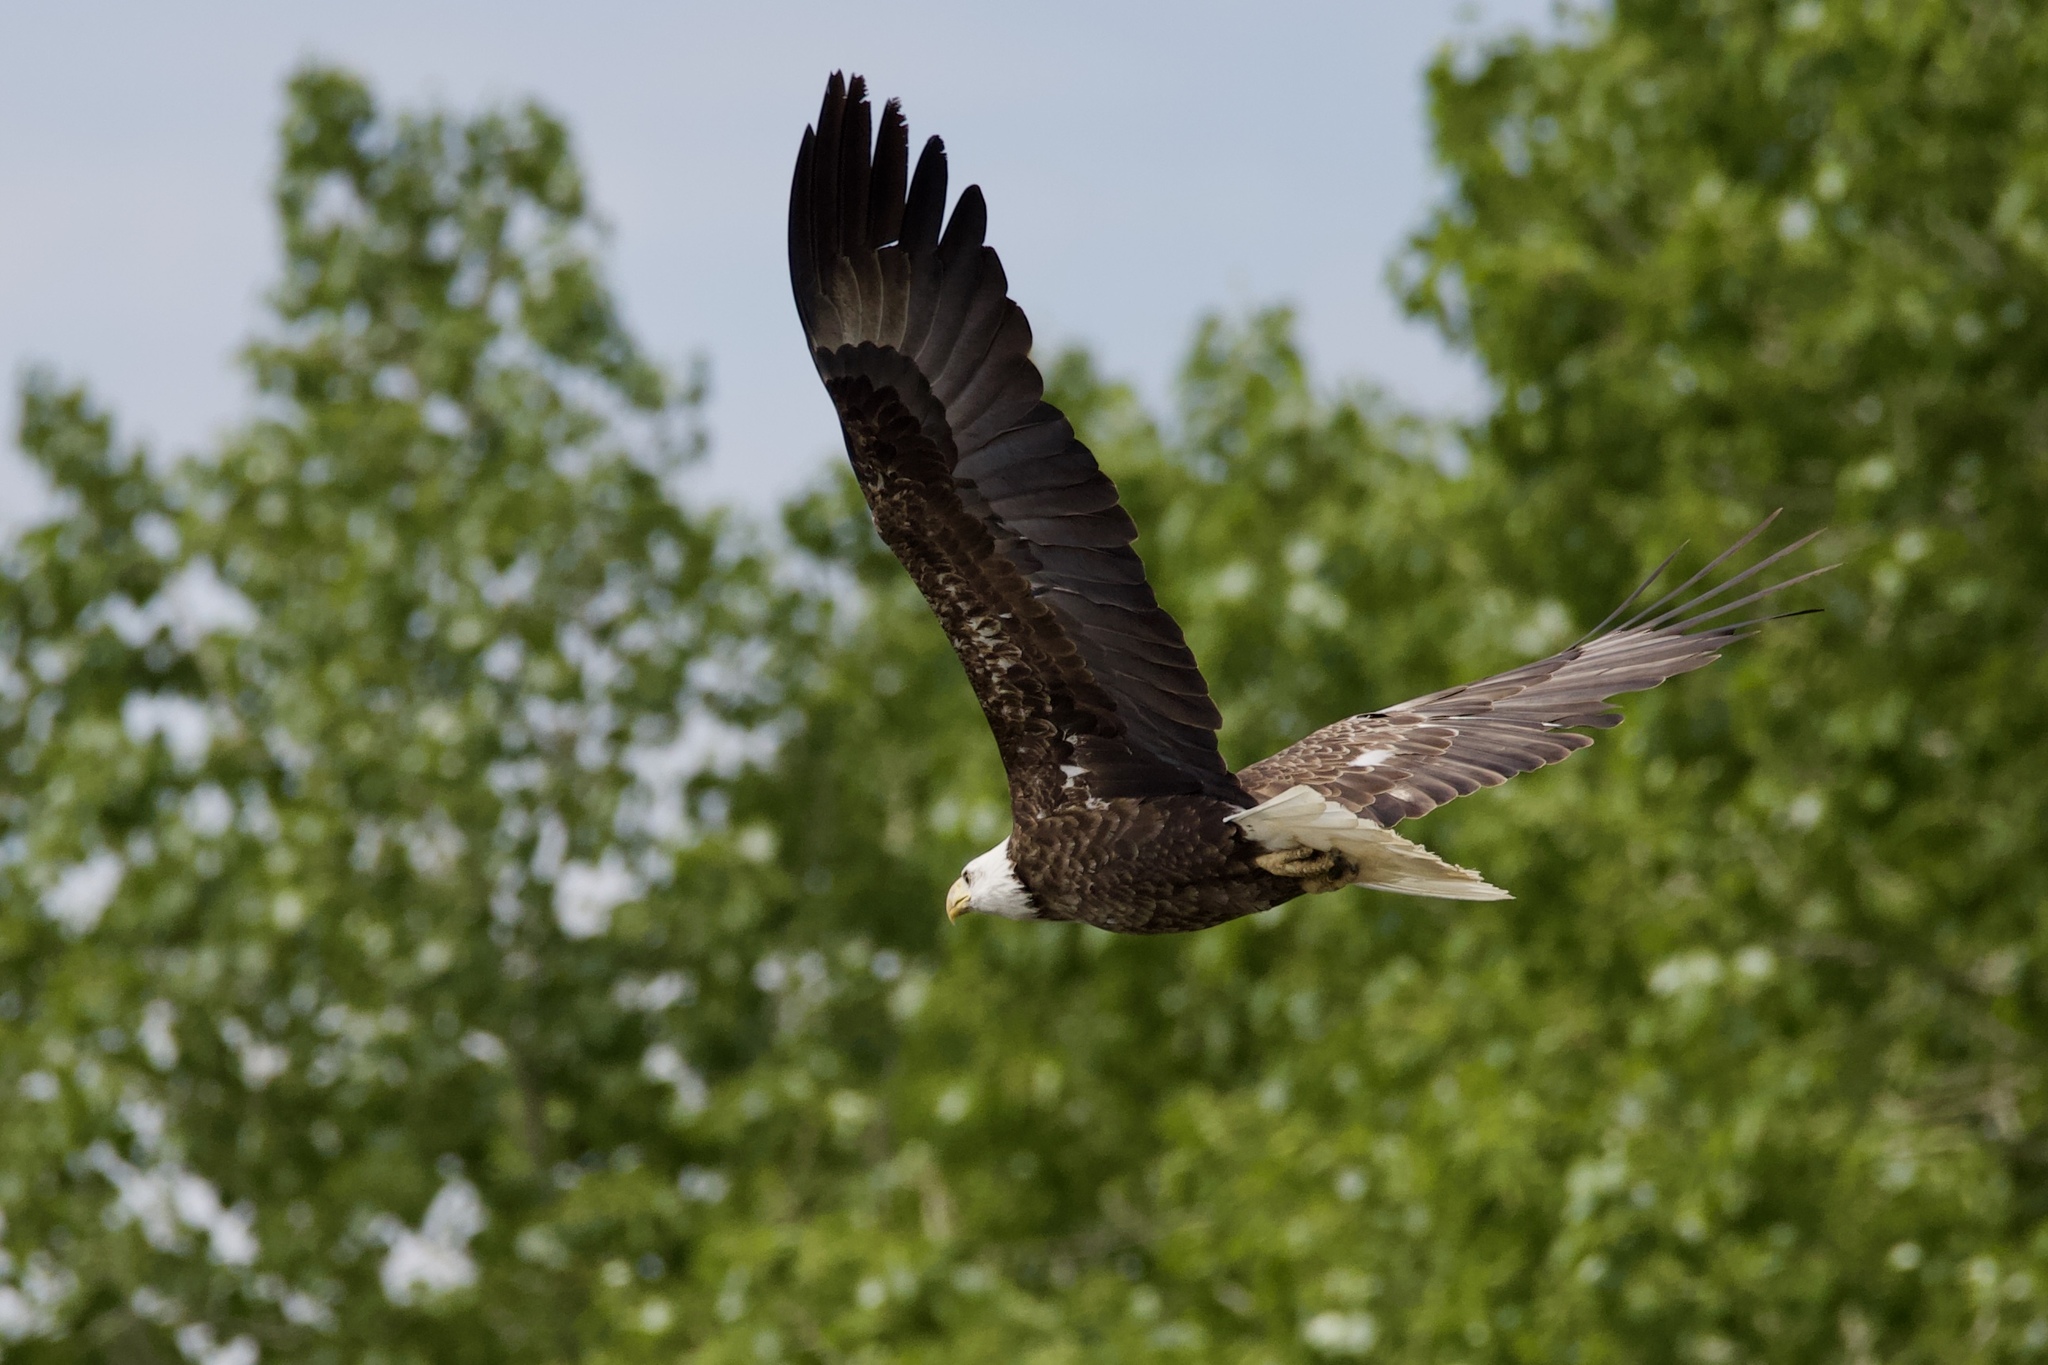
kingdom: Animalia
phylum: Chordata
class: Aves
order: Accipitriformes
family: Accipitridae
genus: Haliaeetus
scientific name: Haliaeetus leucocephalus
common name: Bald eagle
